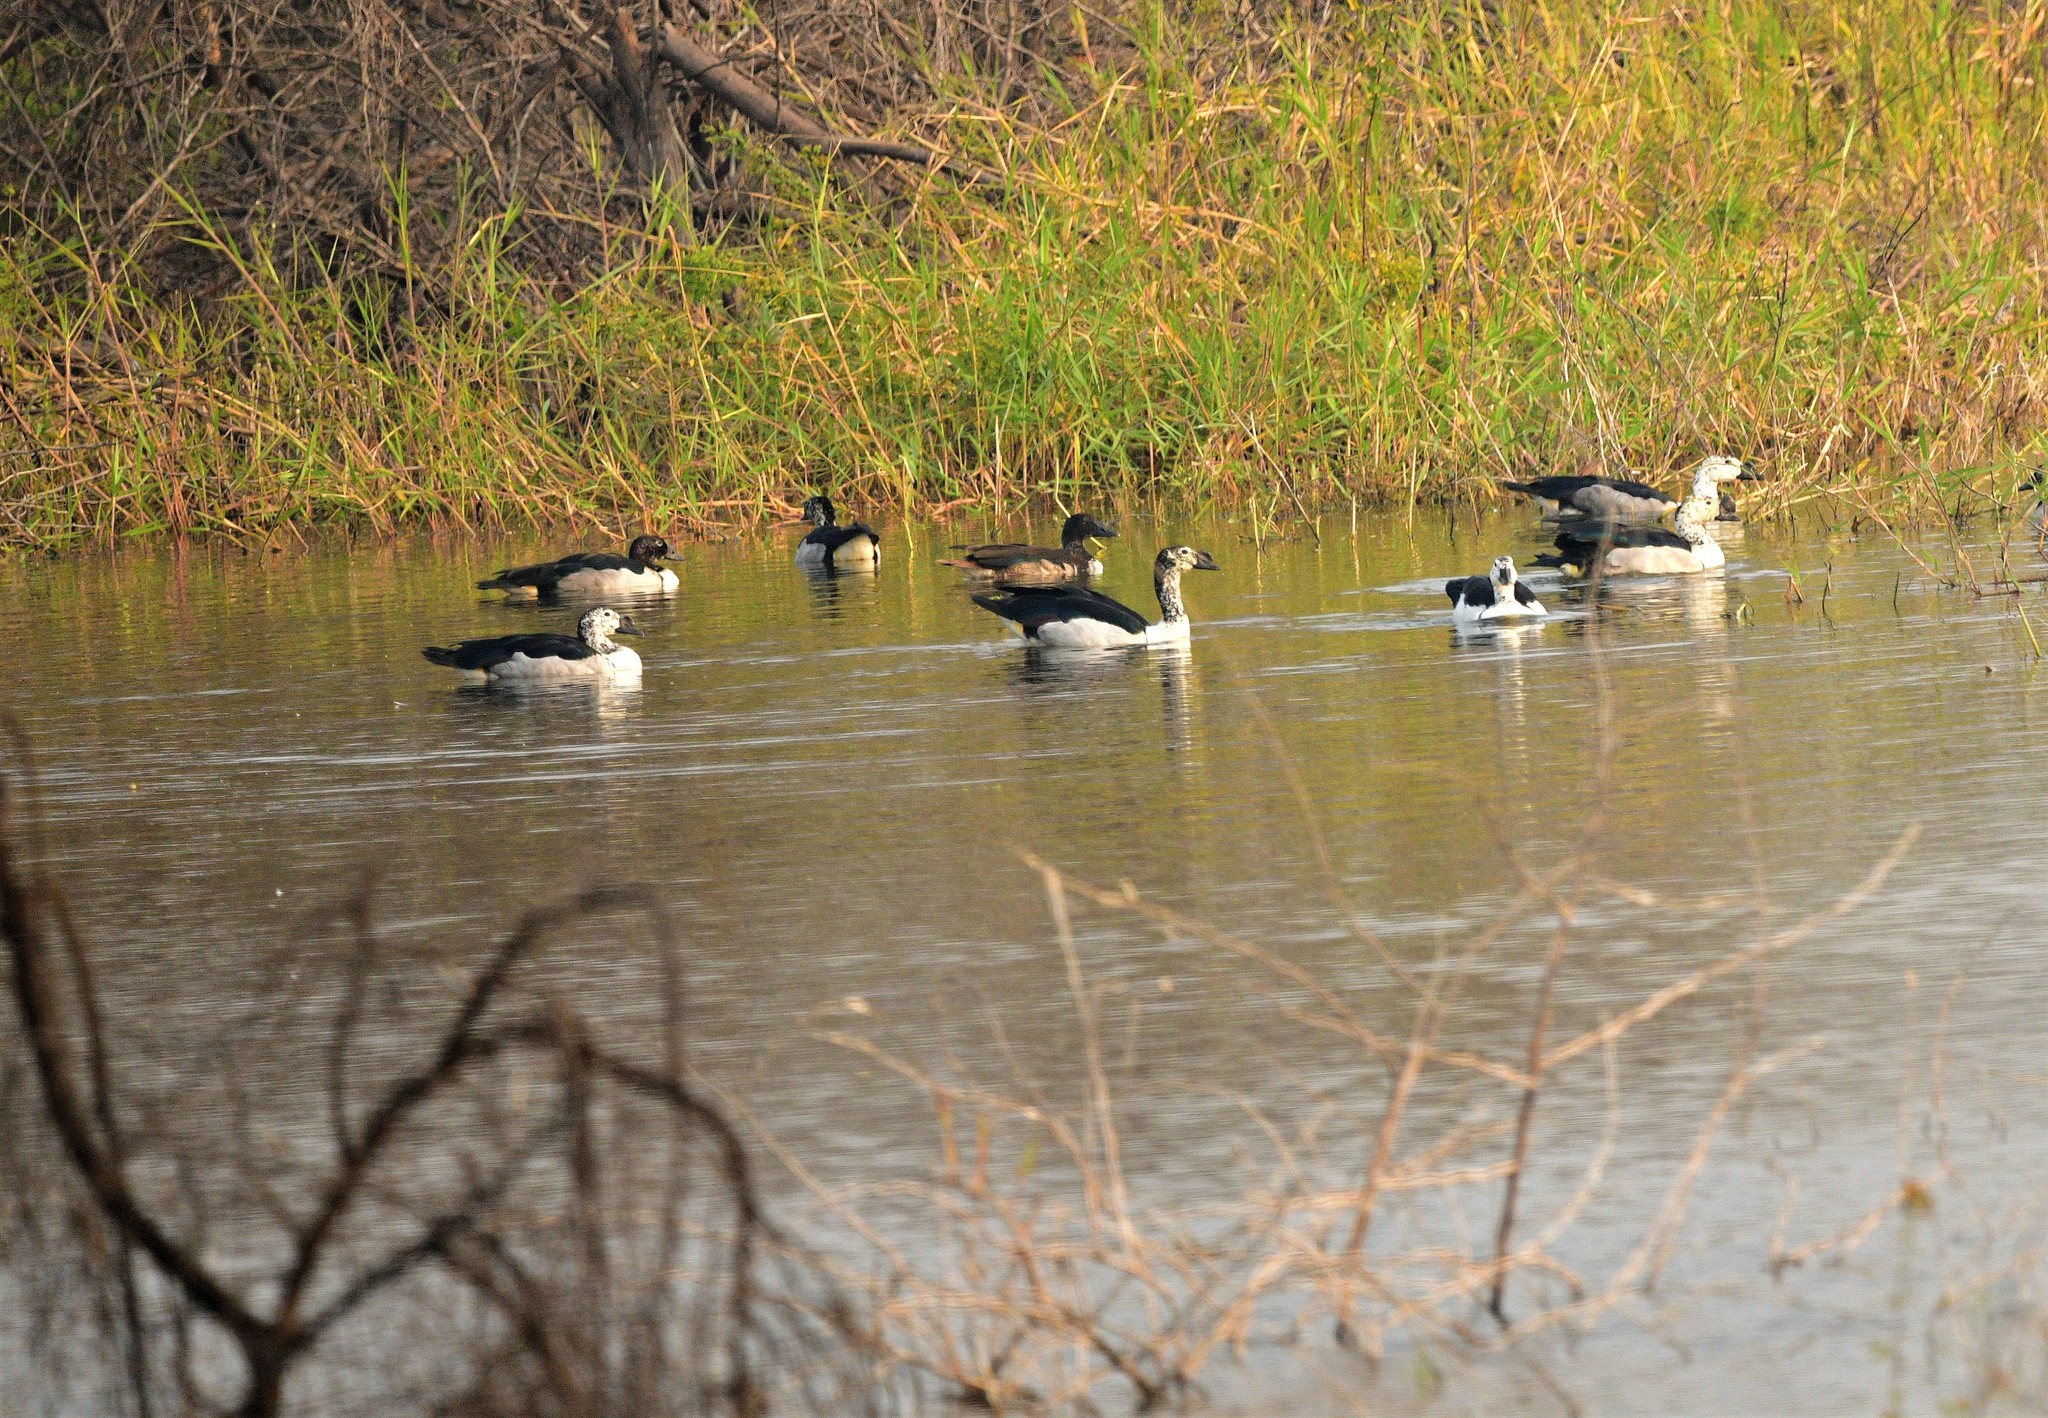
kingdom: Animalia
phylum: Chordata
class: Aves
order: Anseriformes
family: Anatidae
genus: Sarkidiornis
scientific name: Sarkidiornis melanotos
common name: Comb duck
